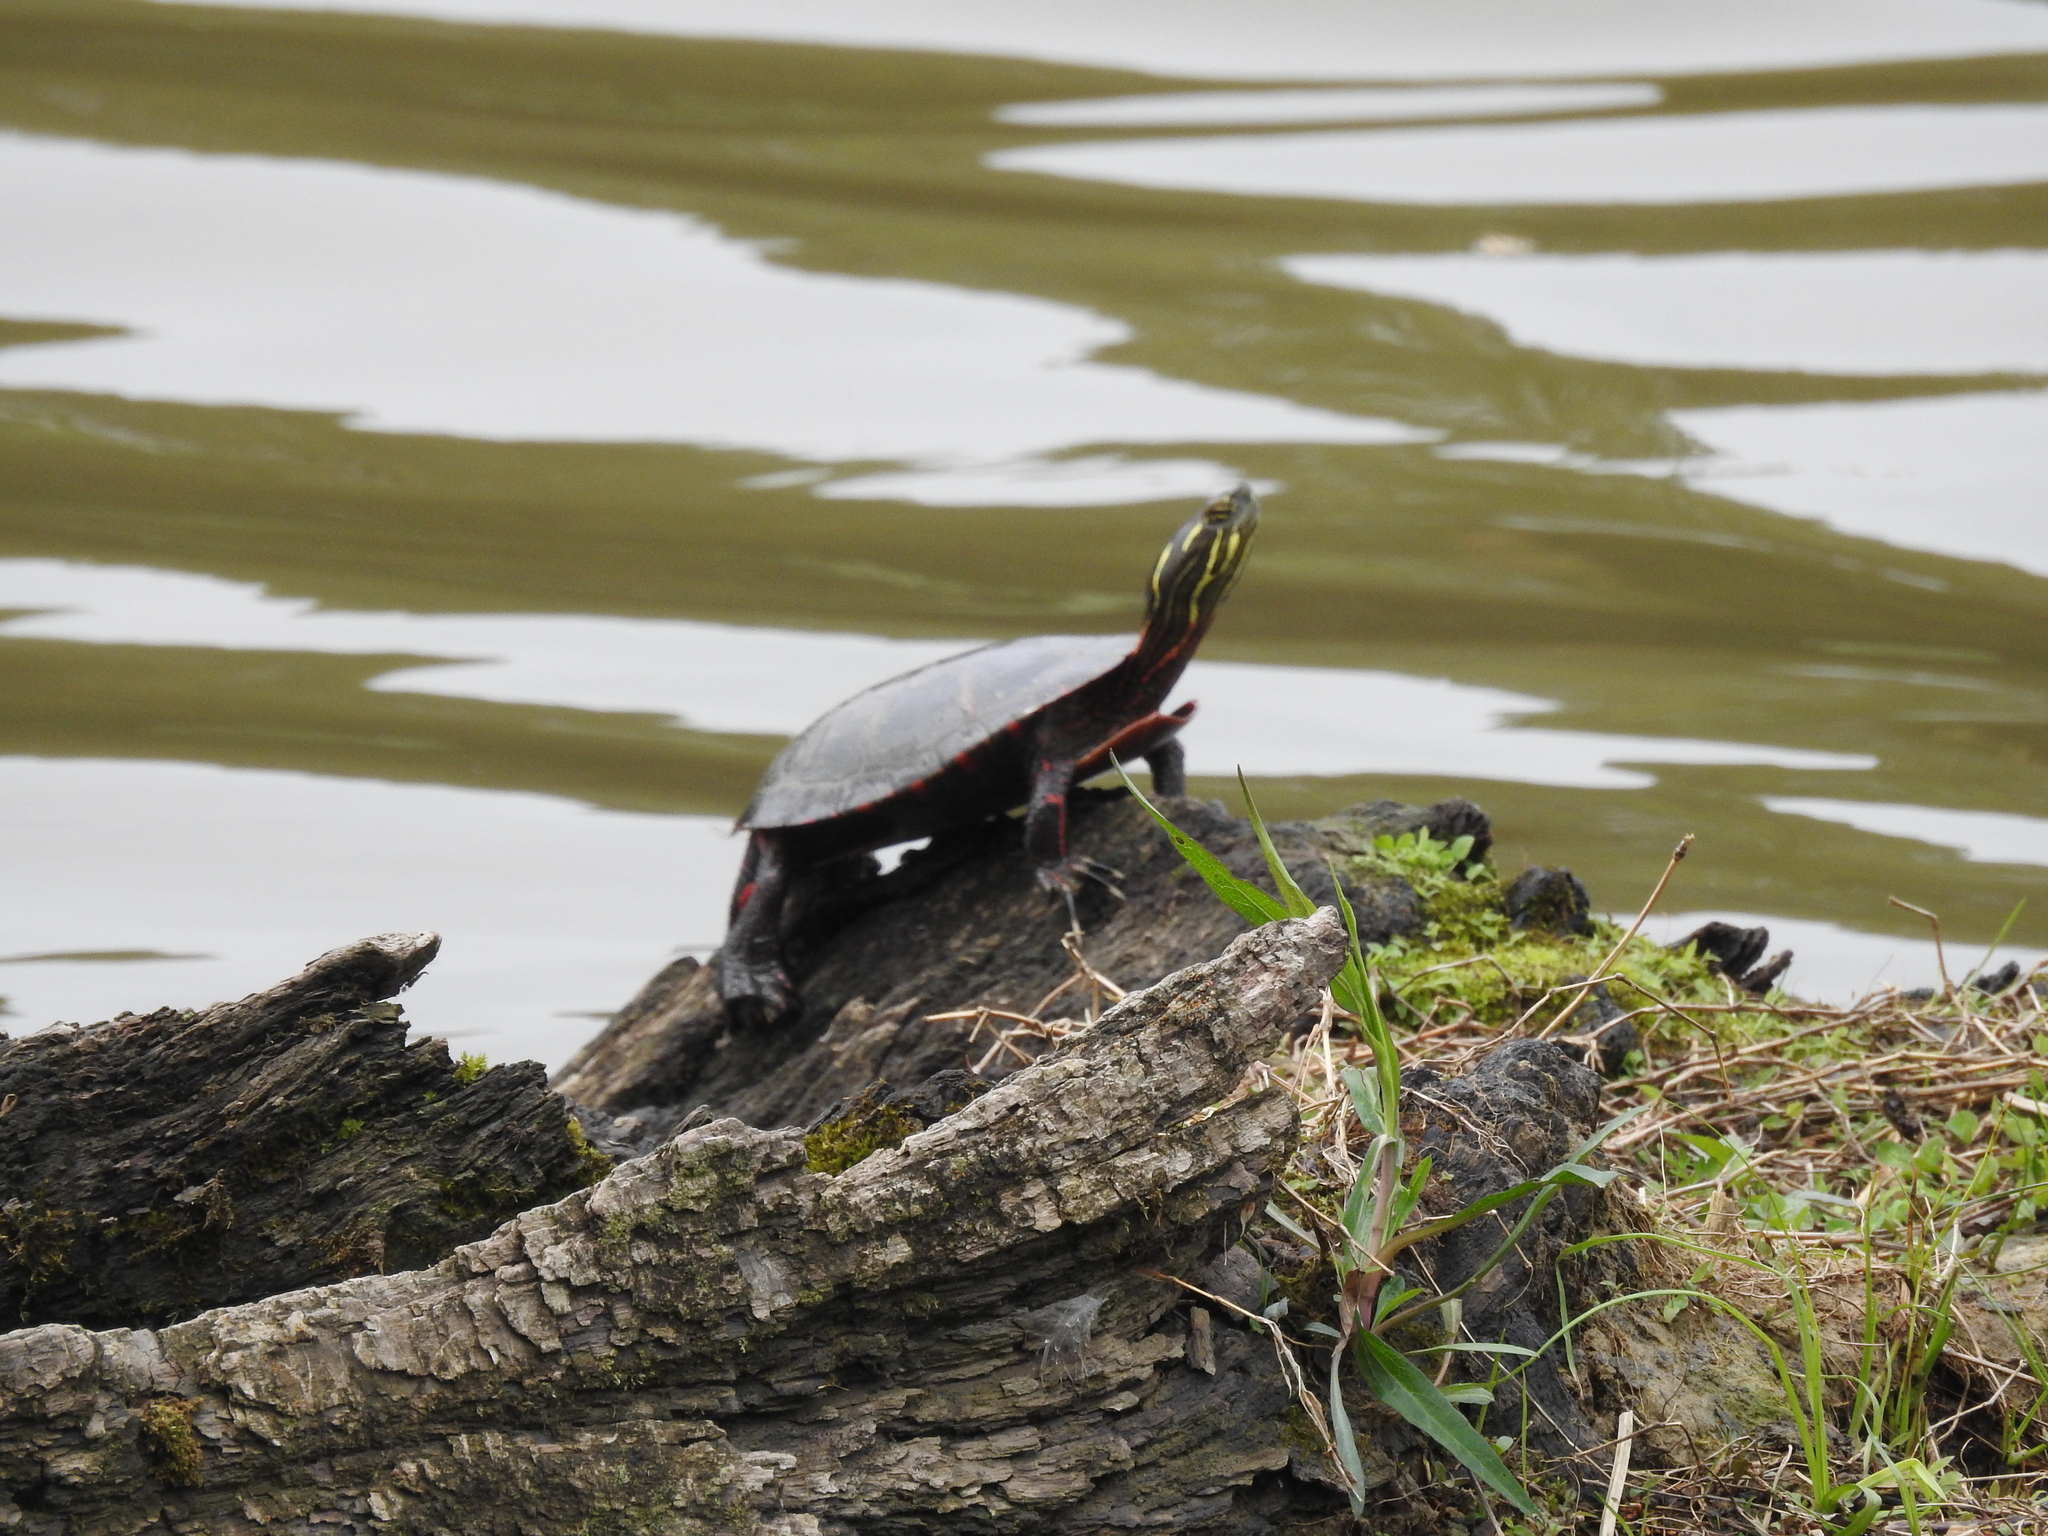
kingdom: Animalia
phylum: Chordata
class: Testudines
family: Emydidae
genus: Chrysemys
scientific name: Chrysemys picta
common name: Painted turtle
